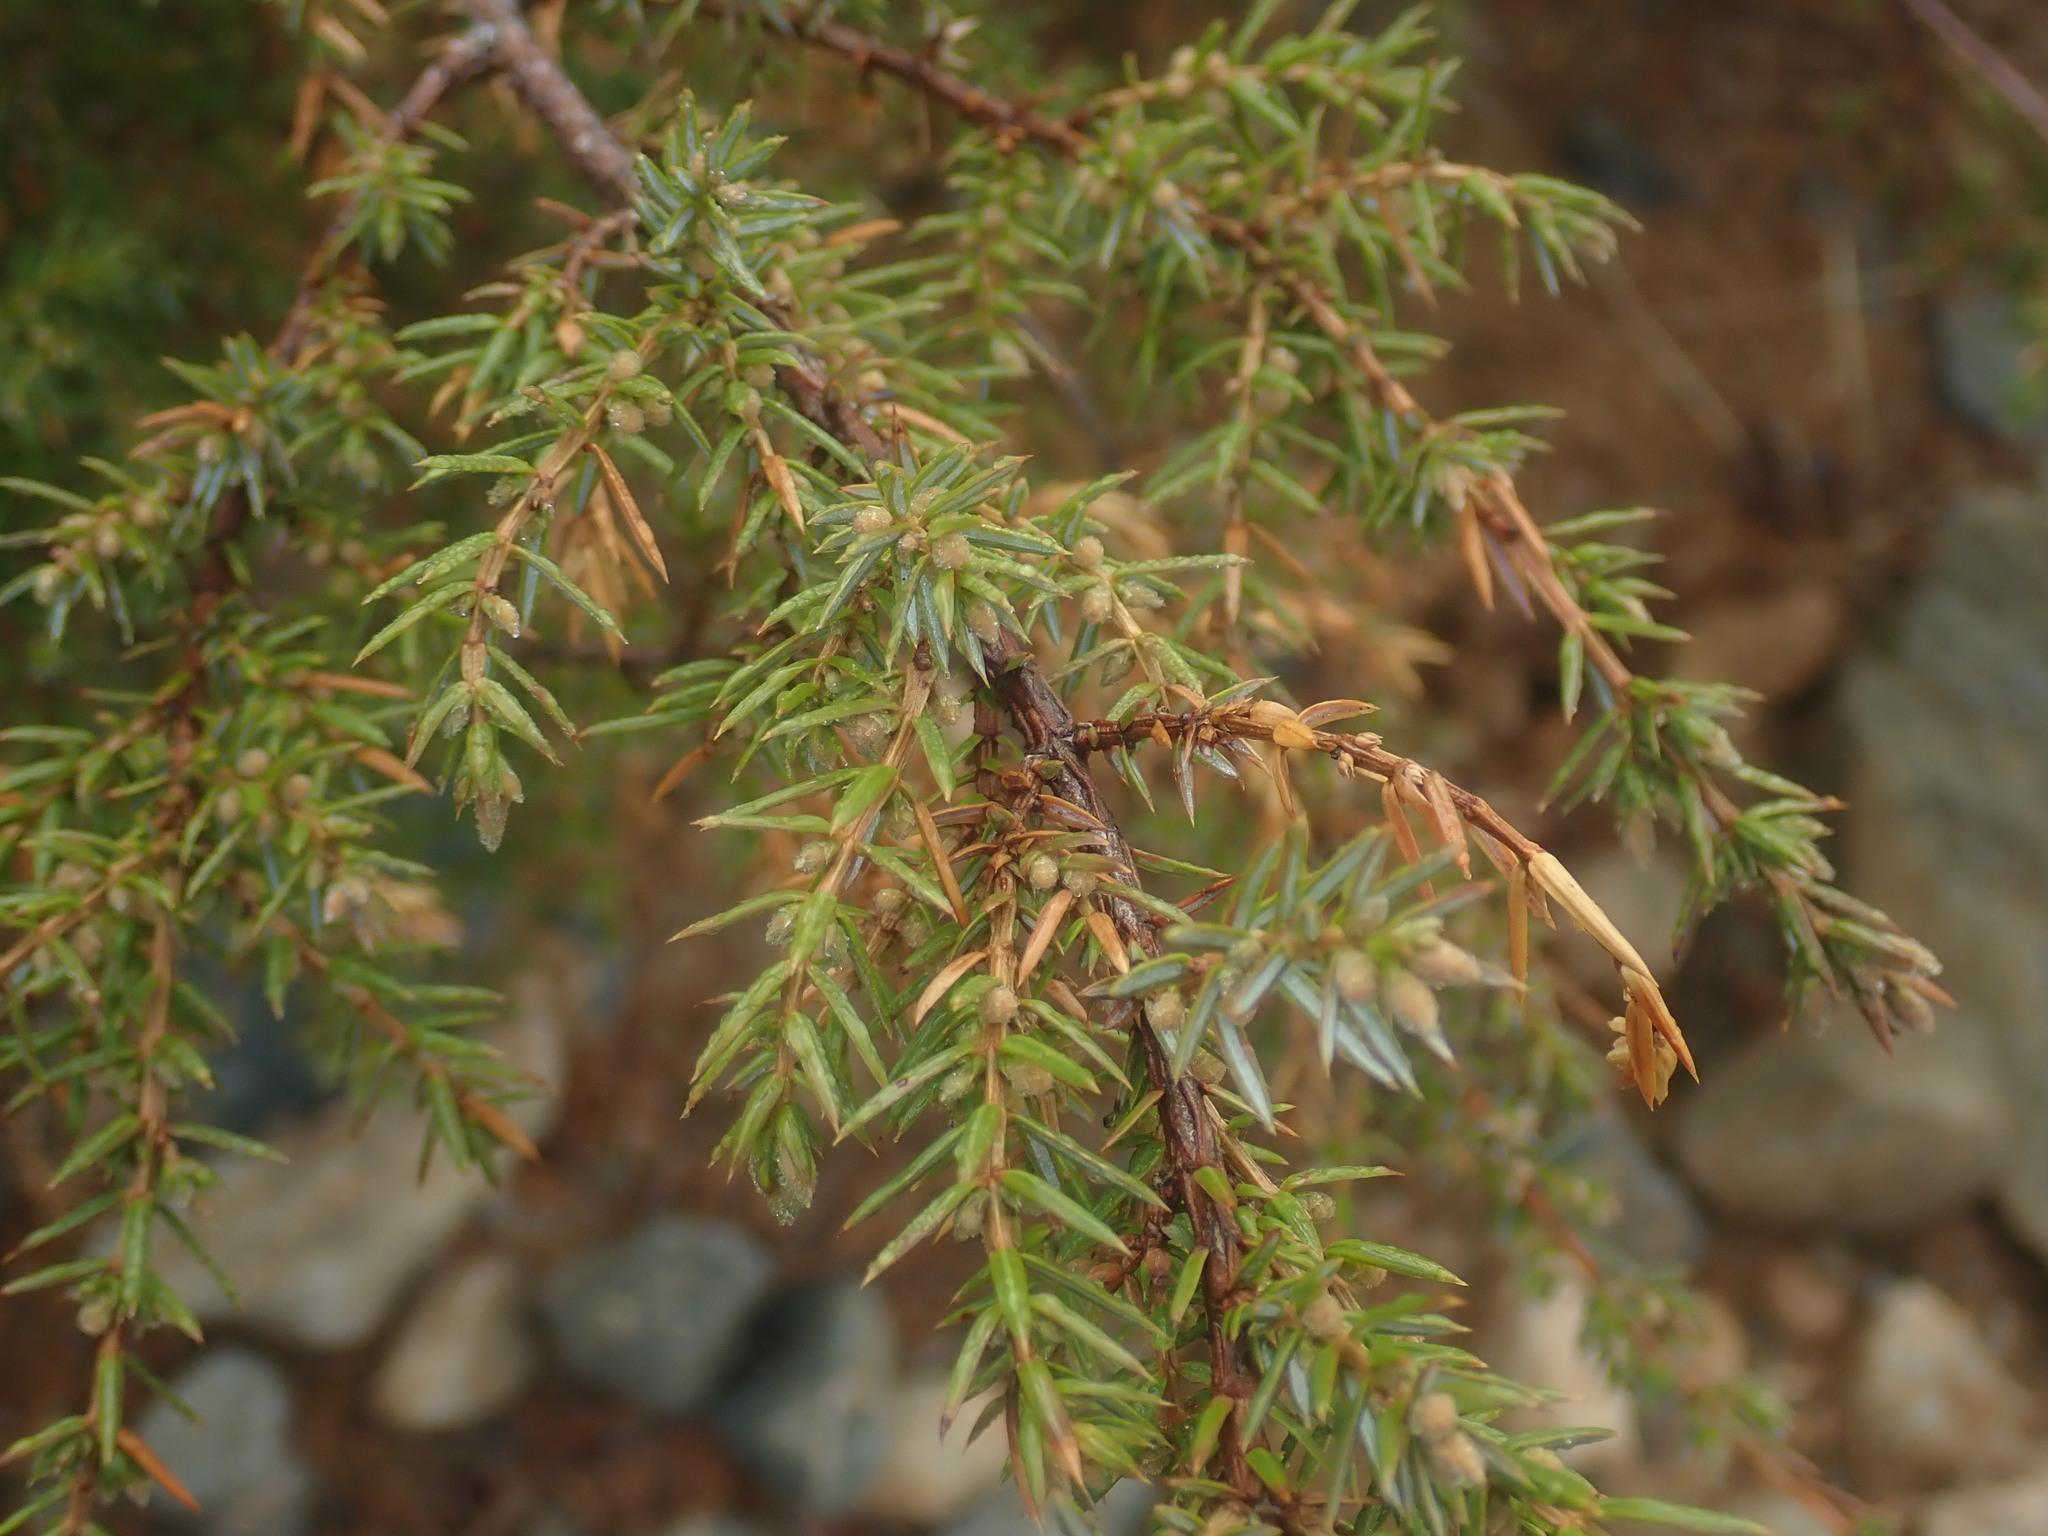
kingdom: Plantae
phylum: Tracheophyta
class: Pinopsida
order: Pinales
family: Cupressaceae
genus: Juniperus
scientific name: Juniperus communis
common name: Common juniper
